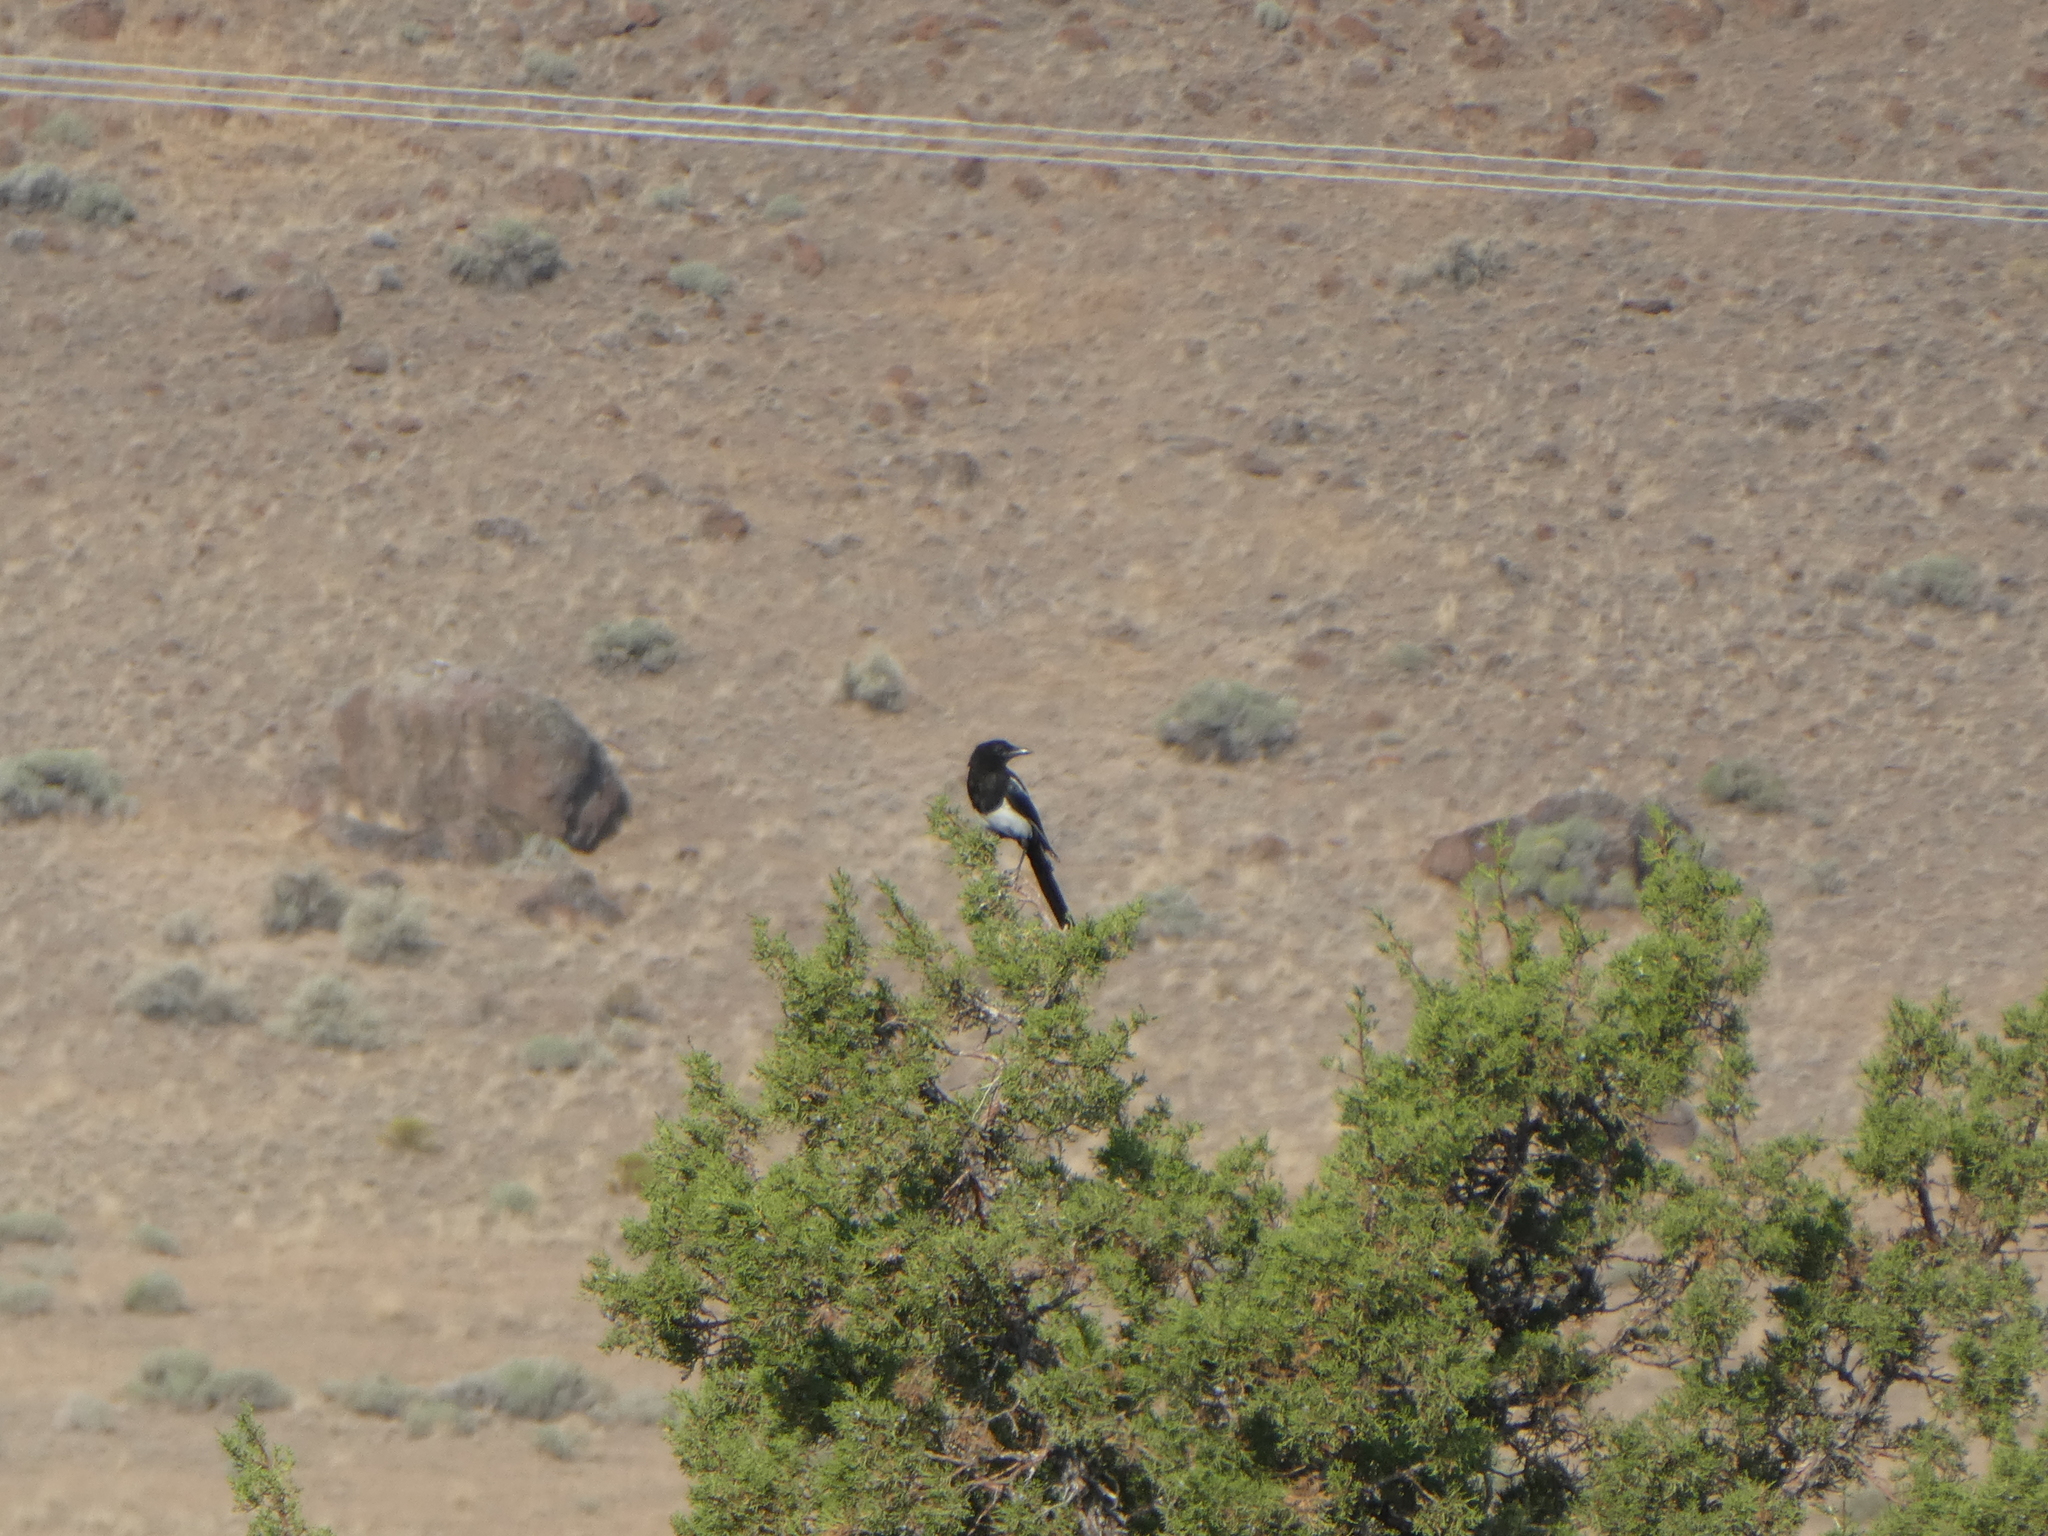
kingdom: Animalia
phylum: Chordata
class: Aves
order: Passeriformes
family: Corvidae
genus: Pica
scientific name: Pica hudsonia
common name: Black-billed magpie
